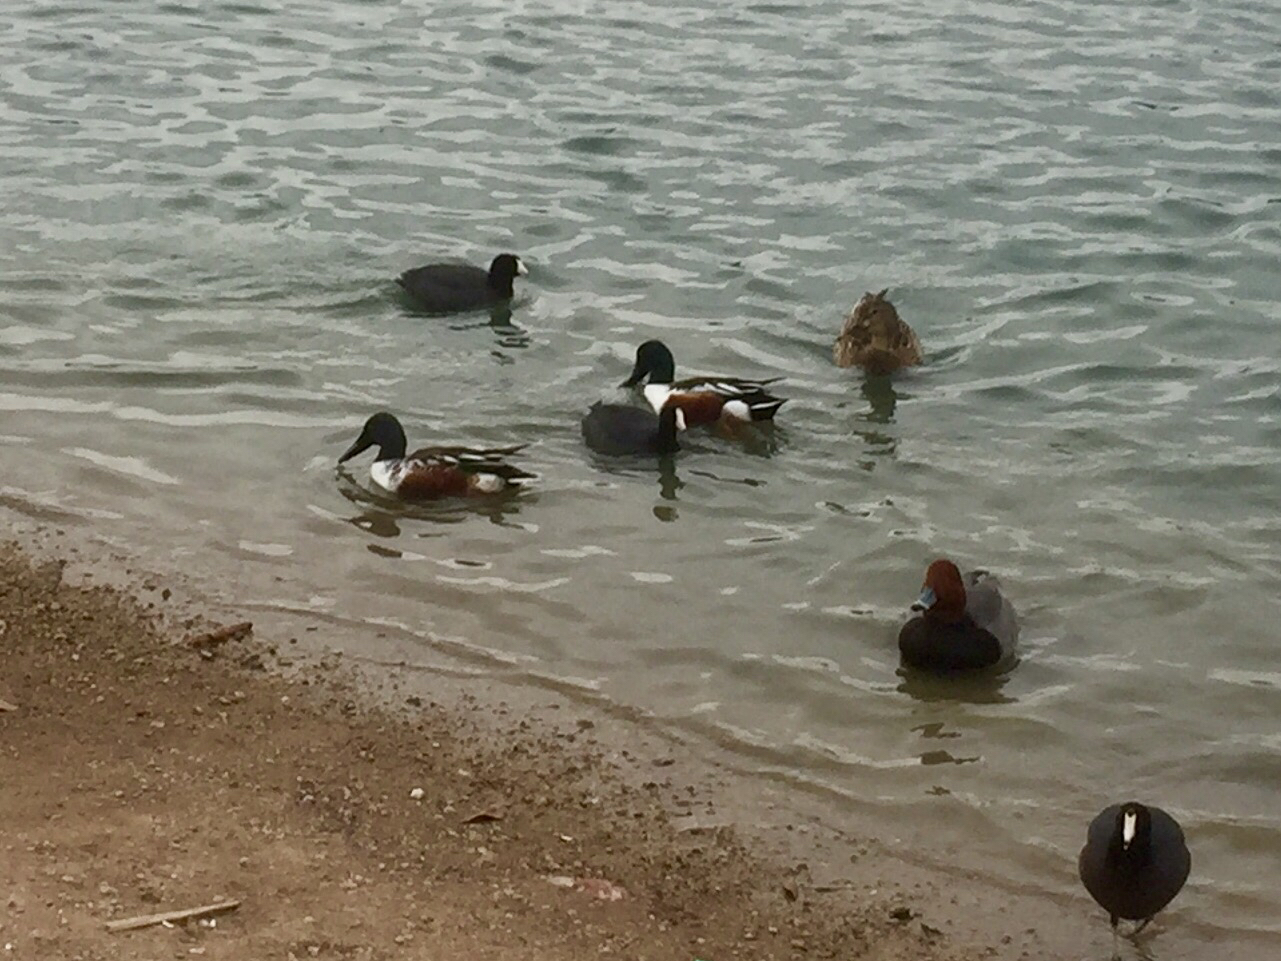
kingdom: Animalia
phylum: Chordata
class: Aves
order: Anseriformes
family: Anatidae
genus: Spatula
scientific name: Spatula clypeata
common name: Northern shoveler
